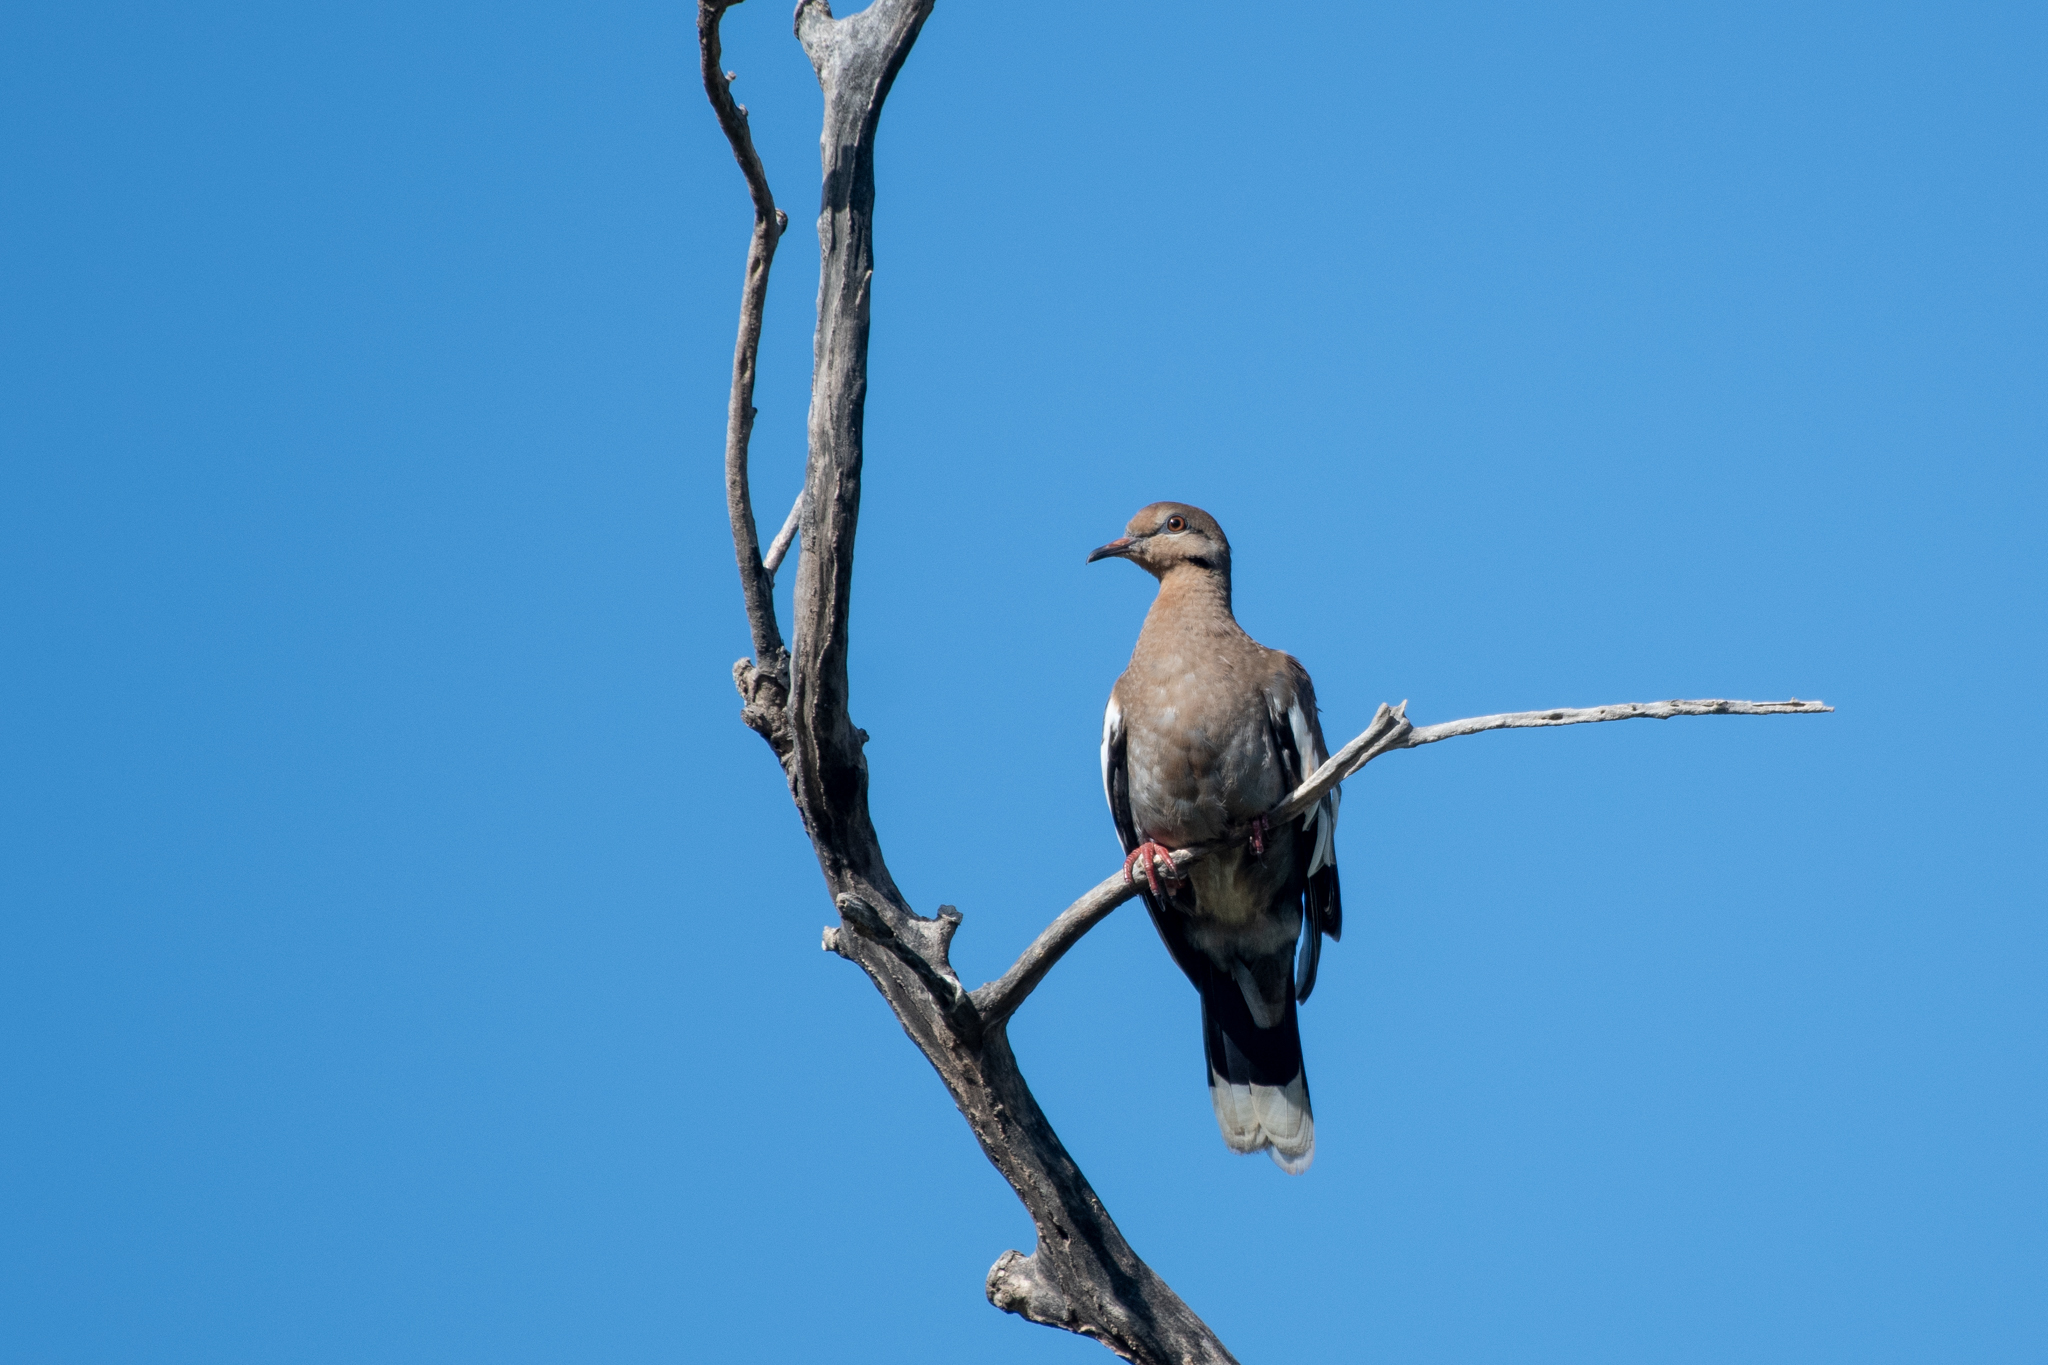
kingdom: Animalia
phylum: Chordata
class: Aves
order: Columbiformes
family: Columbidae
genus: Zenaida
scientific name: Zenaida asiatica
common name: White-winged dove
